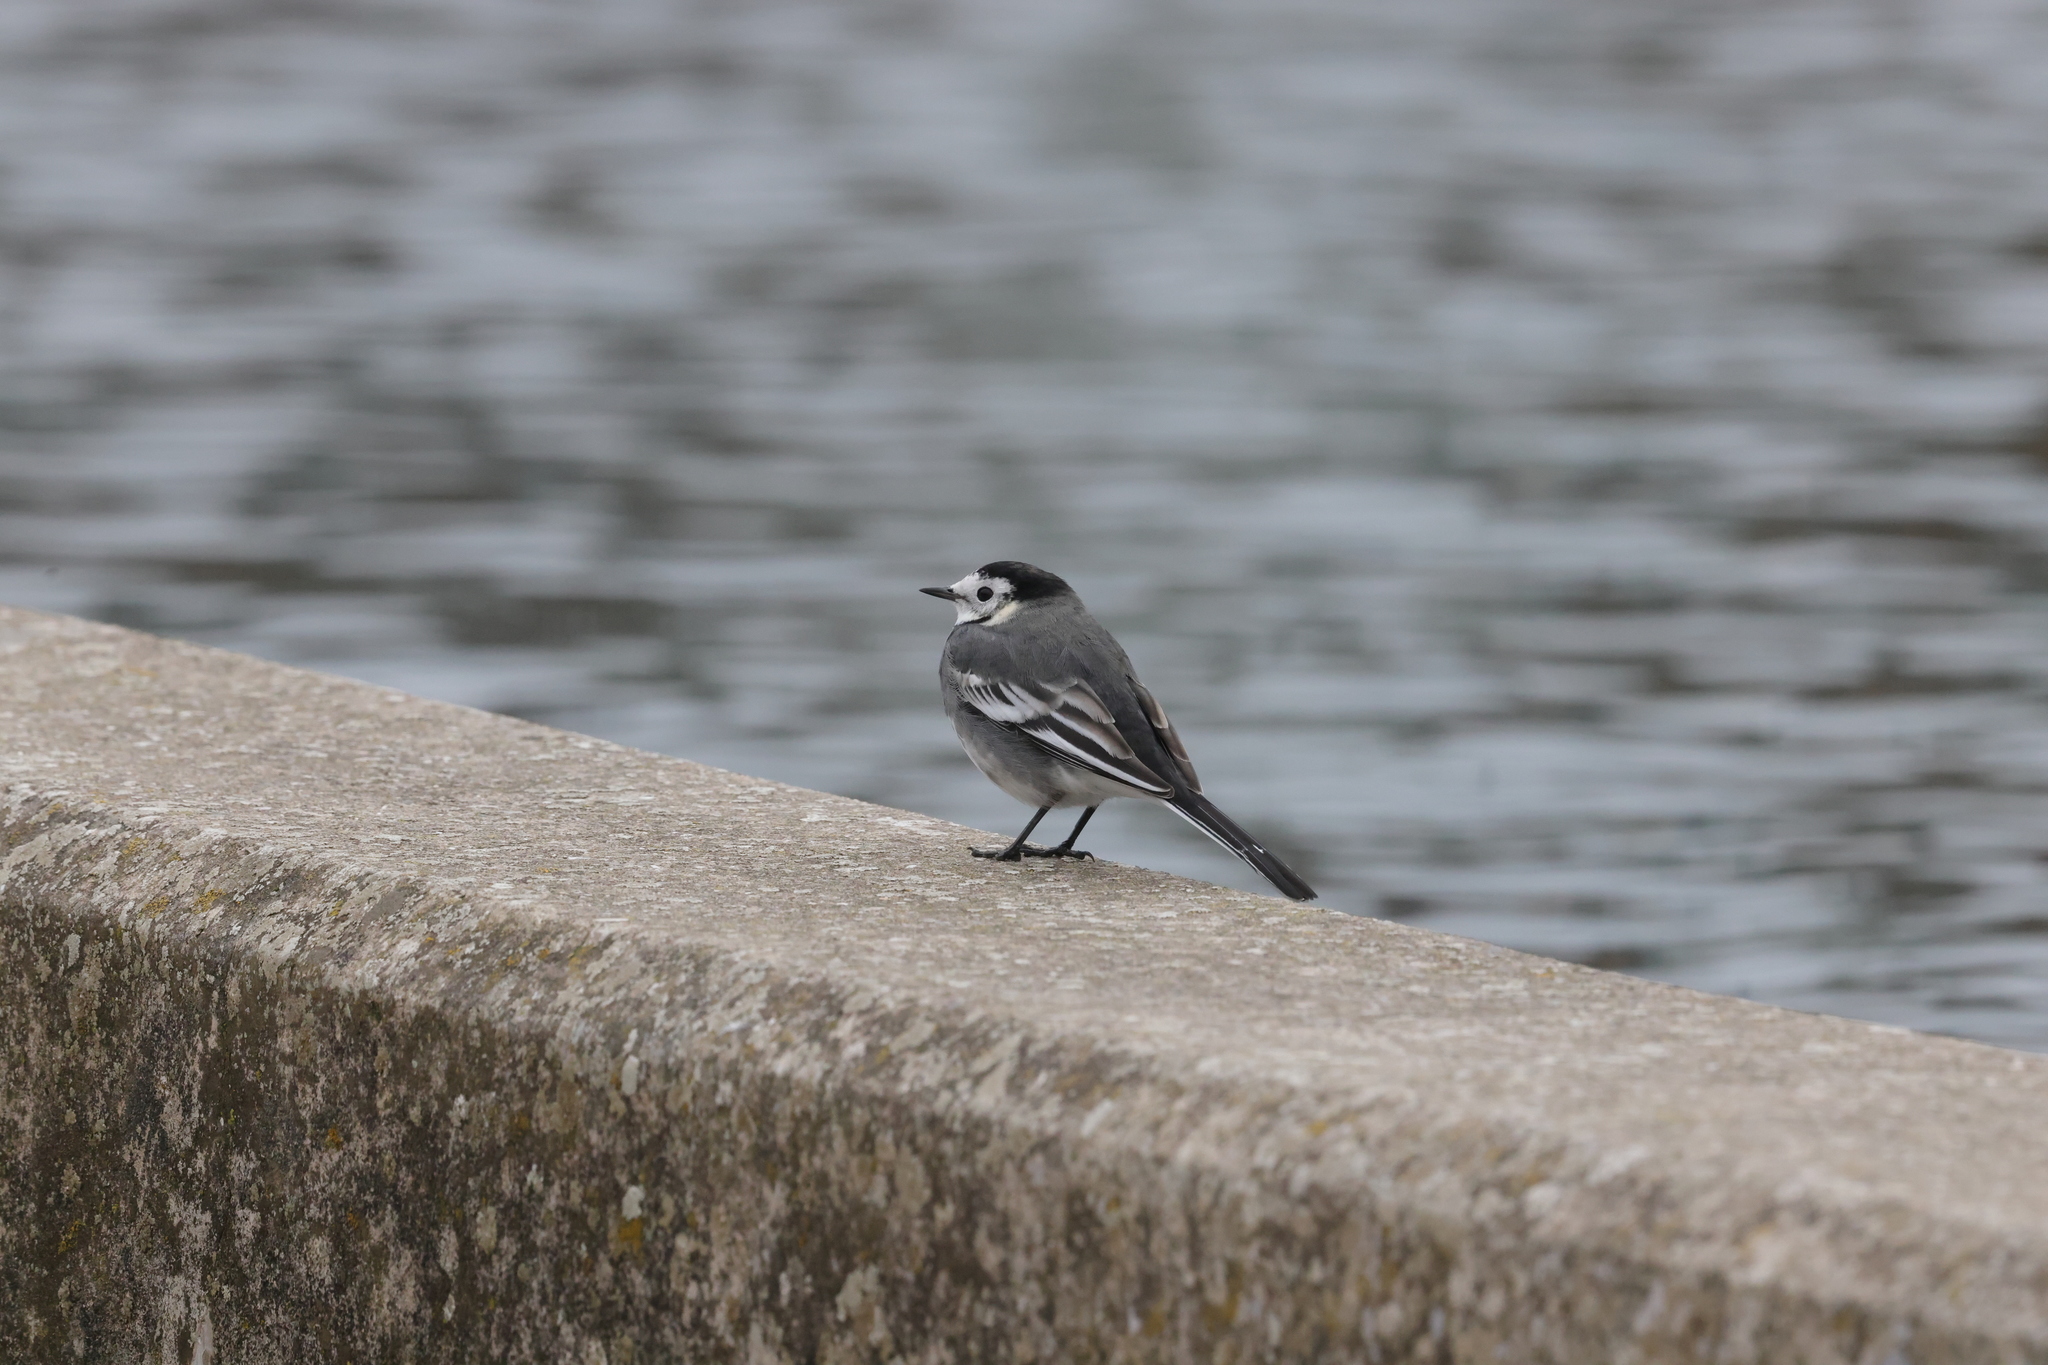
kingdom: Animalia
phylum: Chordata
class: Aves
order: Passeriformes
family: Motacillidae
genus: Motacilla
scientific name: Motacilla alba
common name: White wagtail
